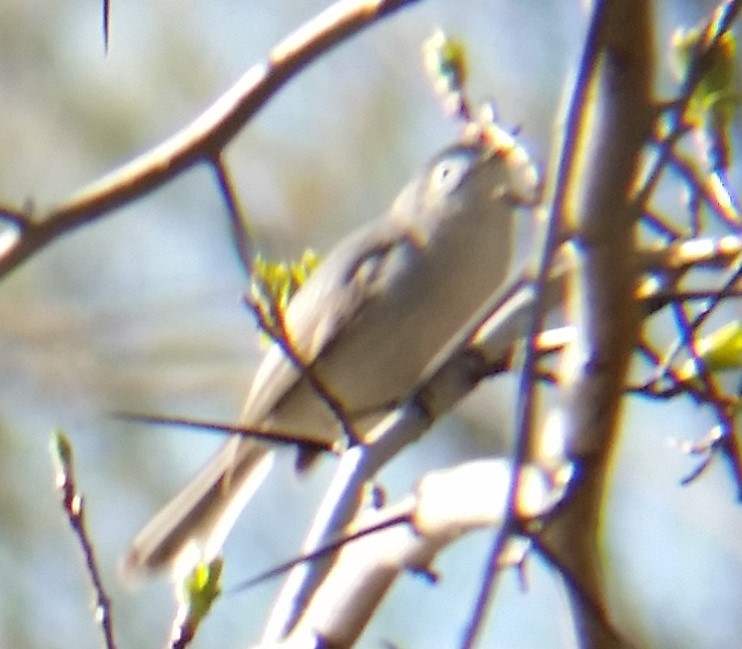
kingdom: Animalia
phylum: Chordata
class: Aves
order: Passeriformes
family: Polioptilidae
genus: Polioptila
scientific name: Polioptila caerulea
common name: Blue-gray gnatcatcher
